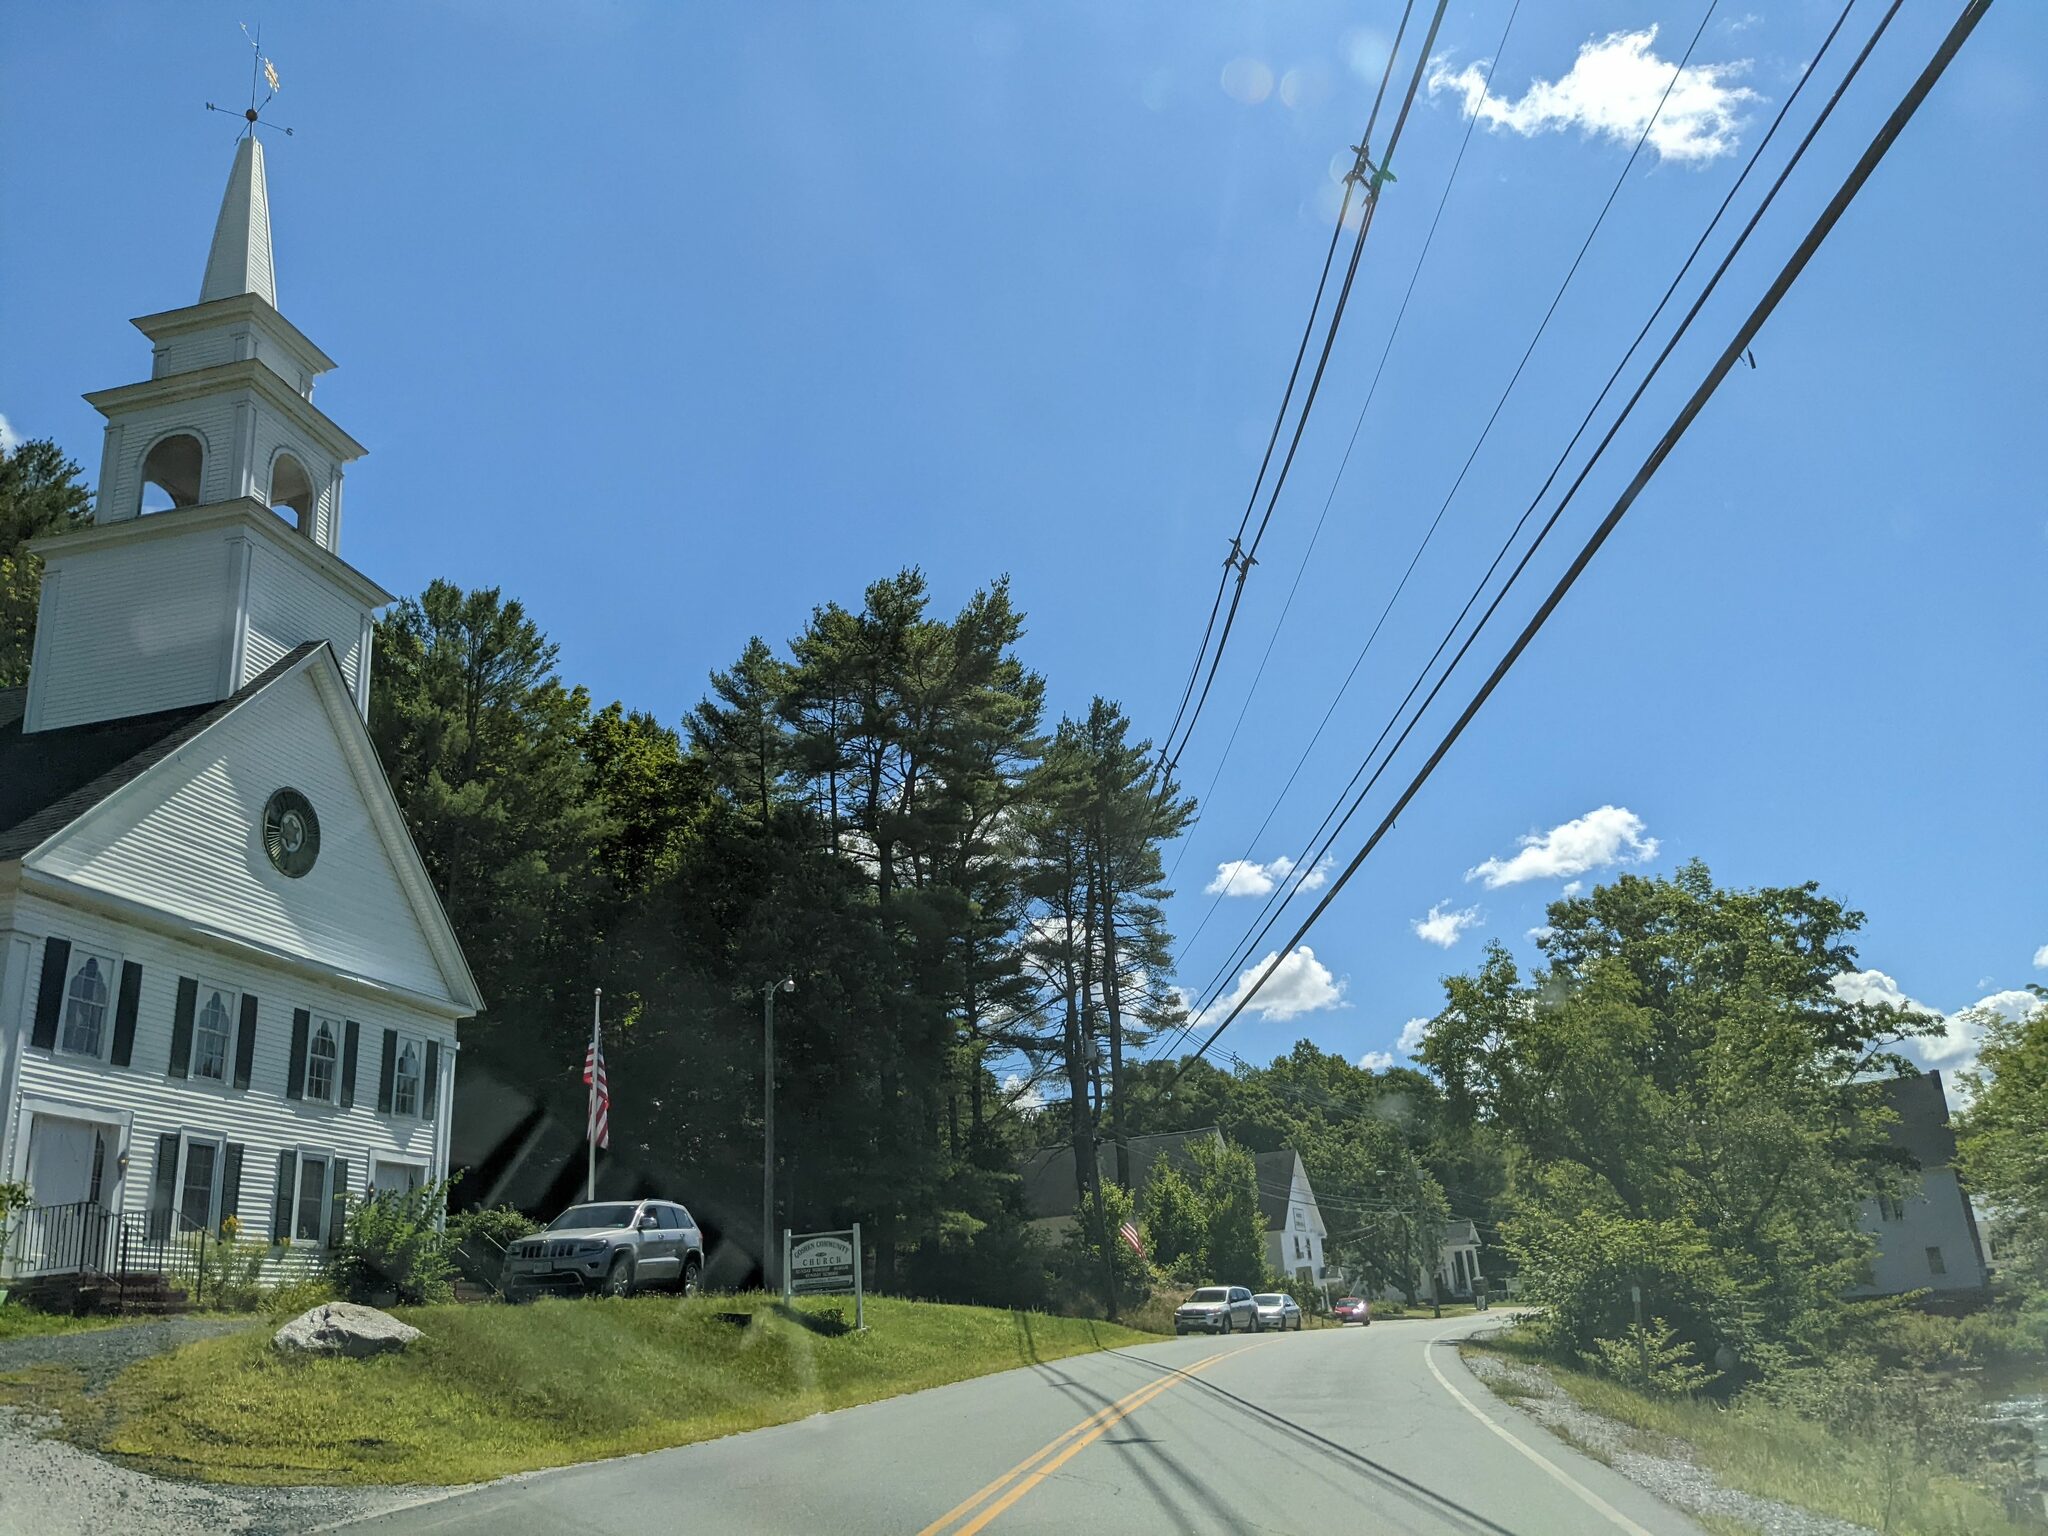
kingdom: Plantae
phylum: Tracheophyta
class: Pinopsida
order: Pinales
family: Pinaceae
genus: Pinus
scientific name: Pinus strobus
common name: Weymouth pine
